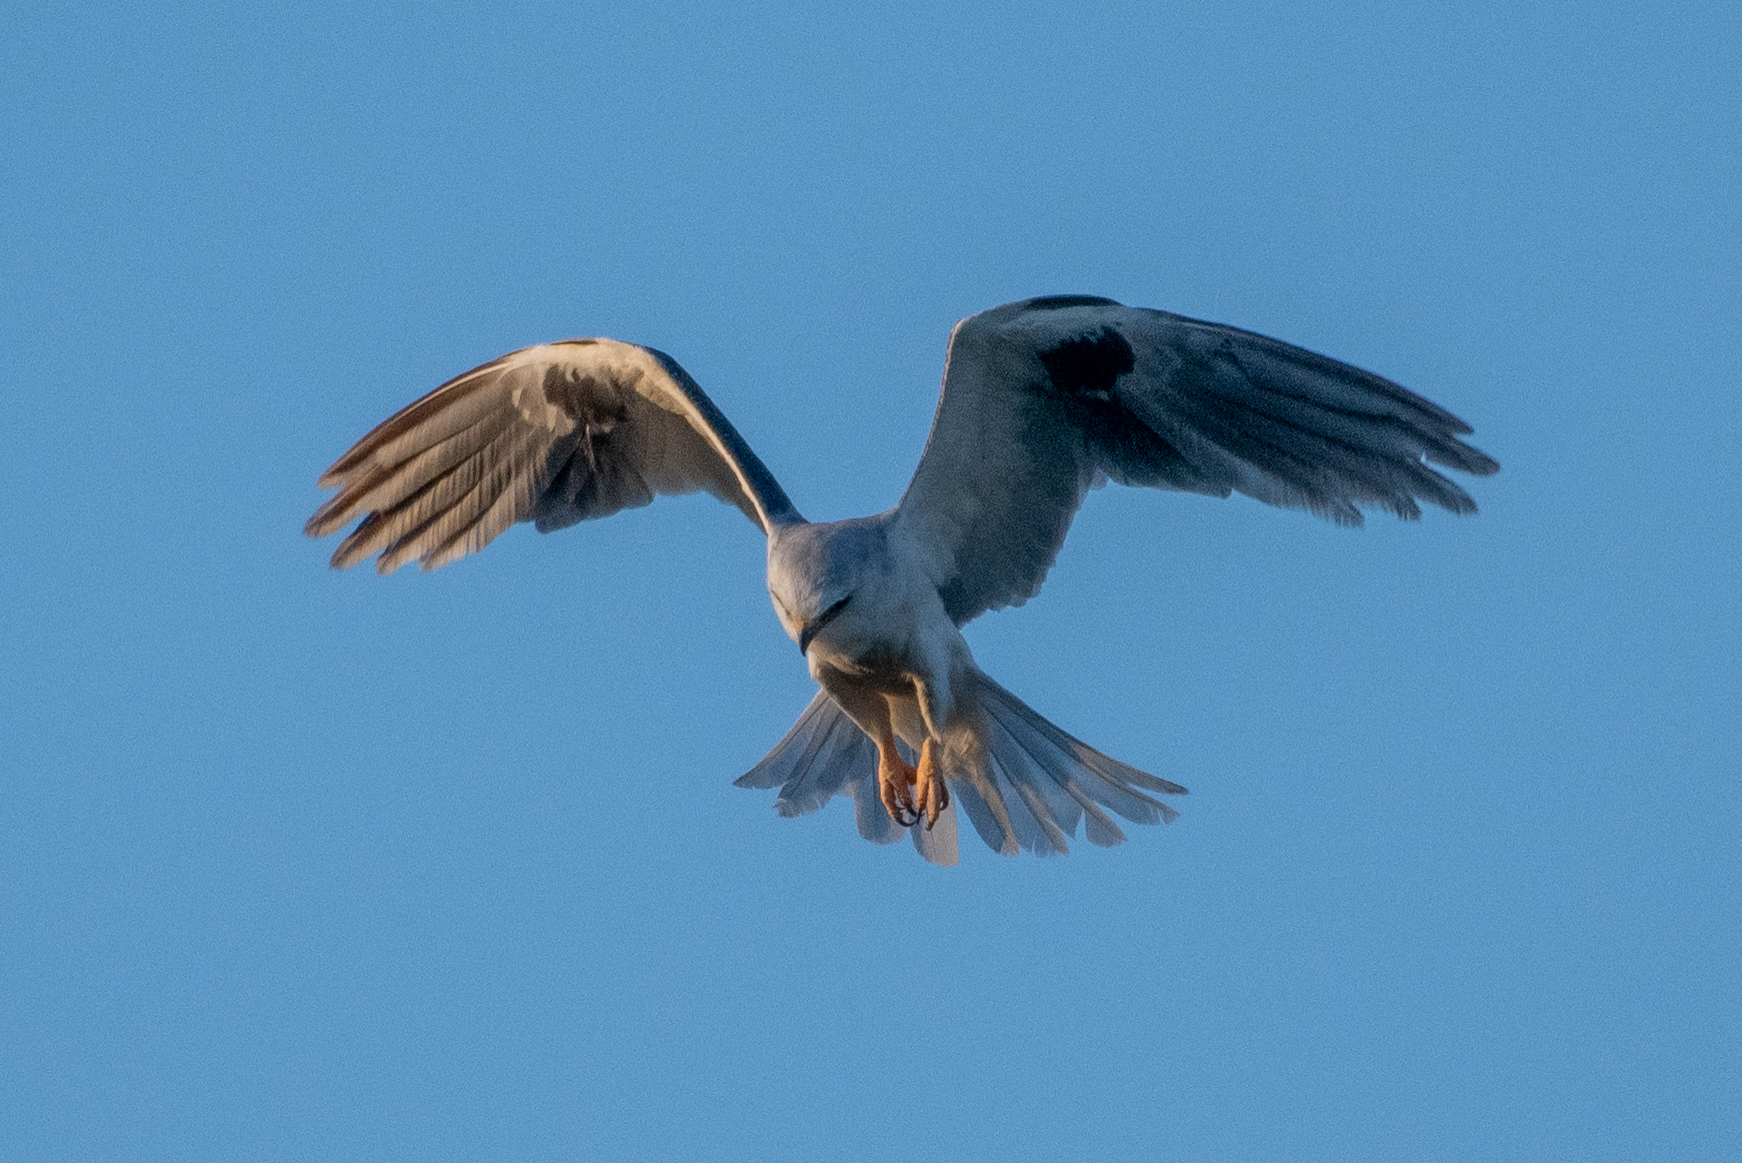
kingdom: Animalia
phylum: Chordata
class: Aves
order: Accipitriformes
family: Accipitridae
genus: Elanus
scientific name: Elanus leucurus
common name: White-tailed kite
